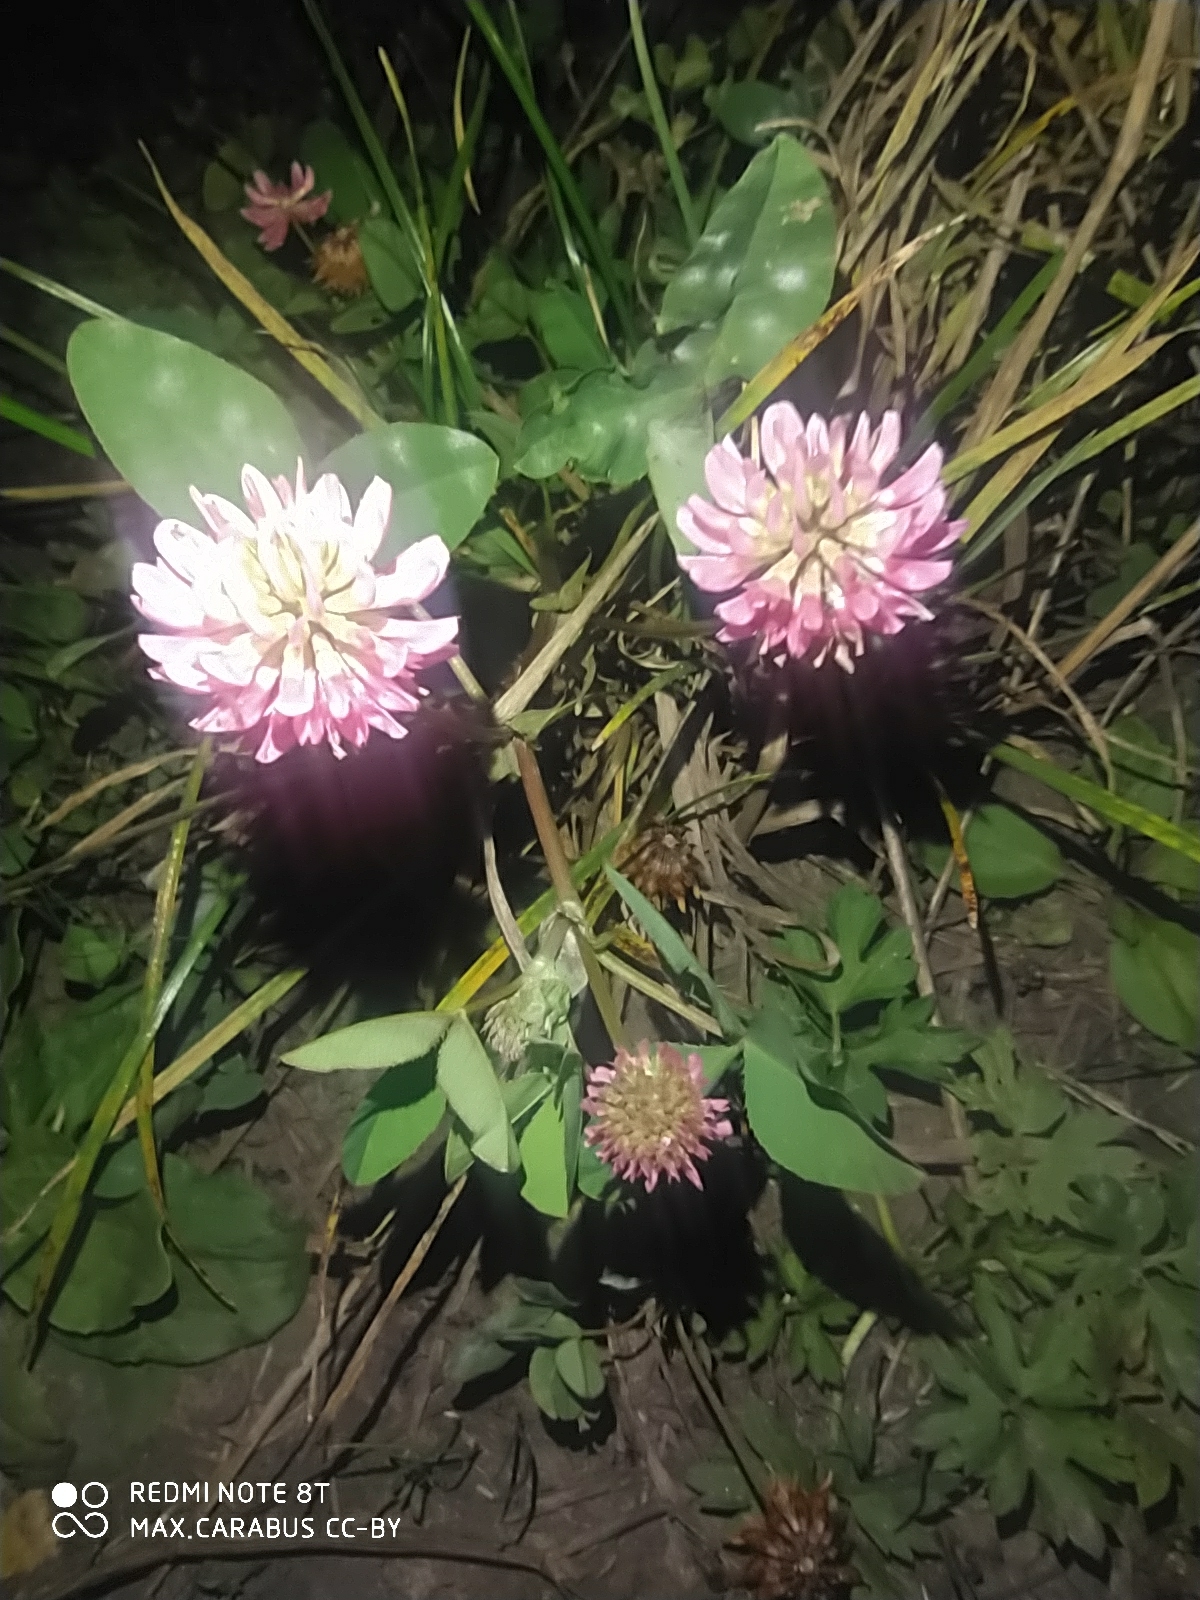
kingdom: Plantae
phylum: Tracheophyta
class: Magnoliopsida
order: Fabales
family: Fabaceae
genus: Trifolium
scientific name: Trifolium hybridum
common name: Alsike clover
